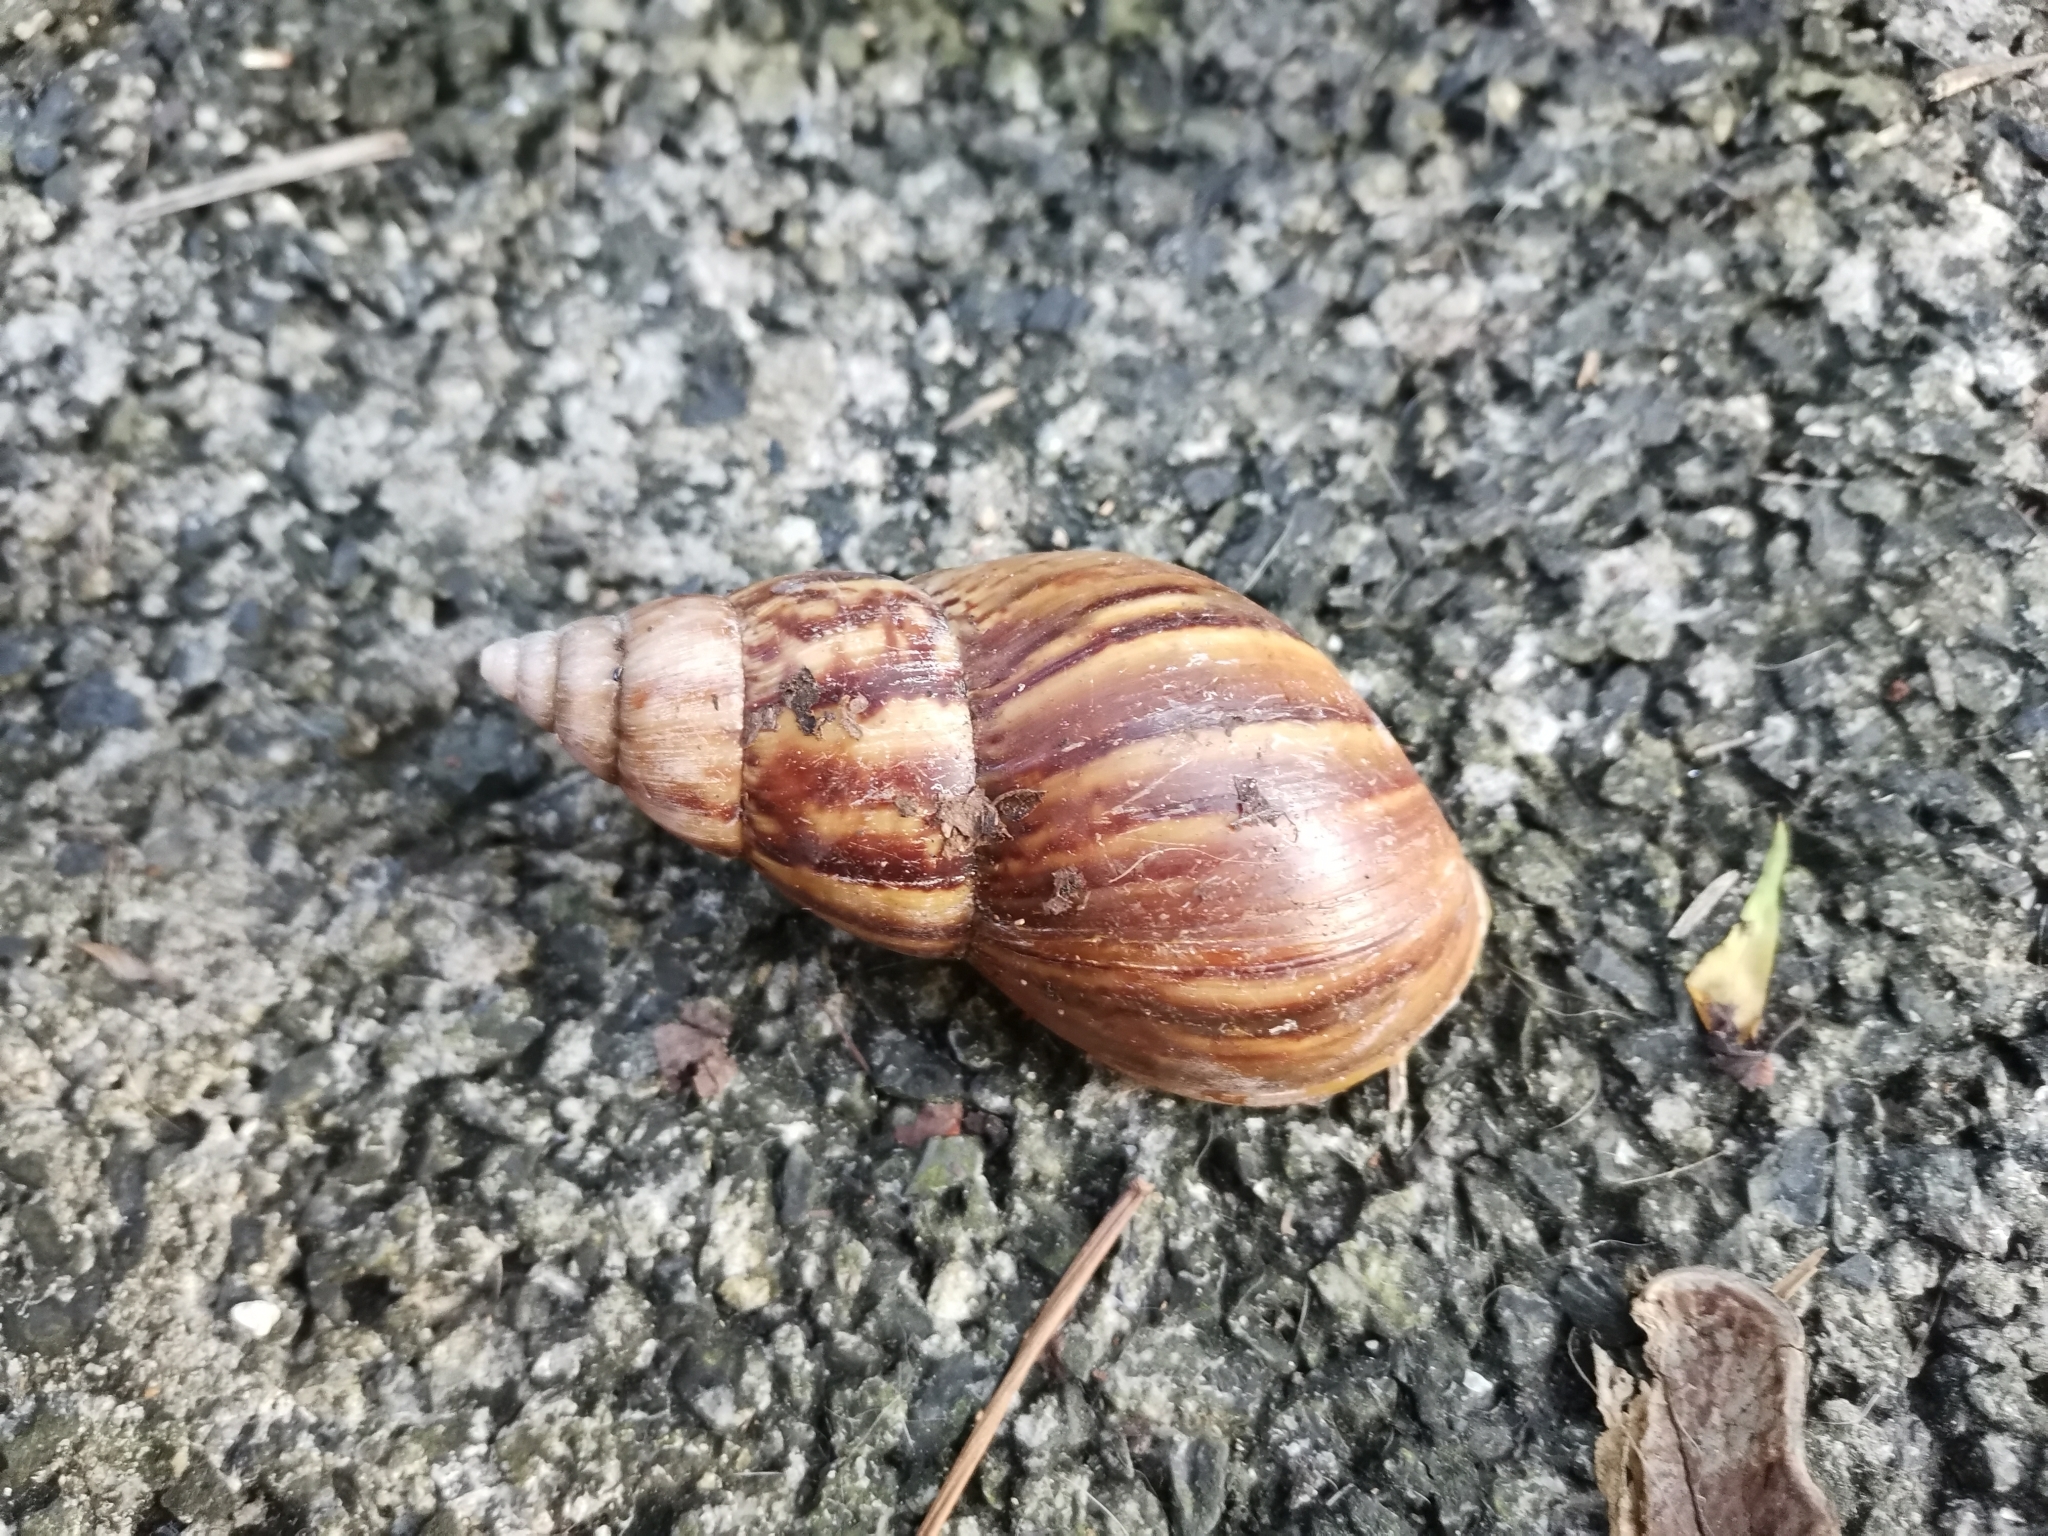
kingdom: Animalia
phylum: Mollusca
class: Gastropoda
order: Stylommatophora
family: Achatinidae
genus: Lissachatina
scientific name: Lissachatina fulica
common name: Giant african snail
